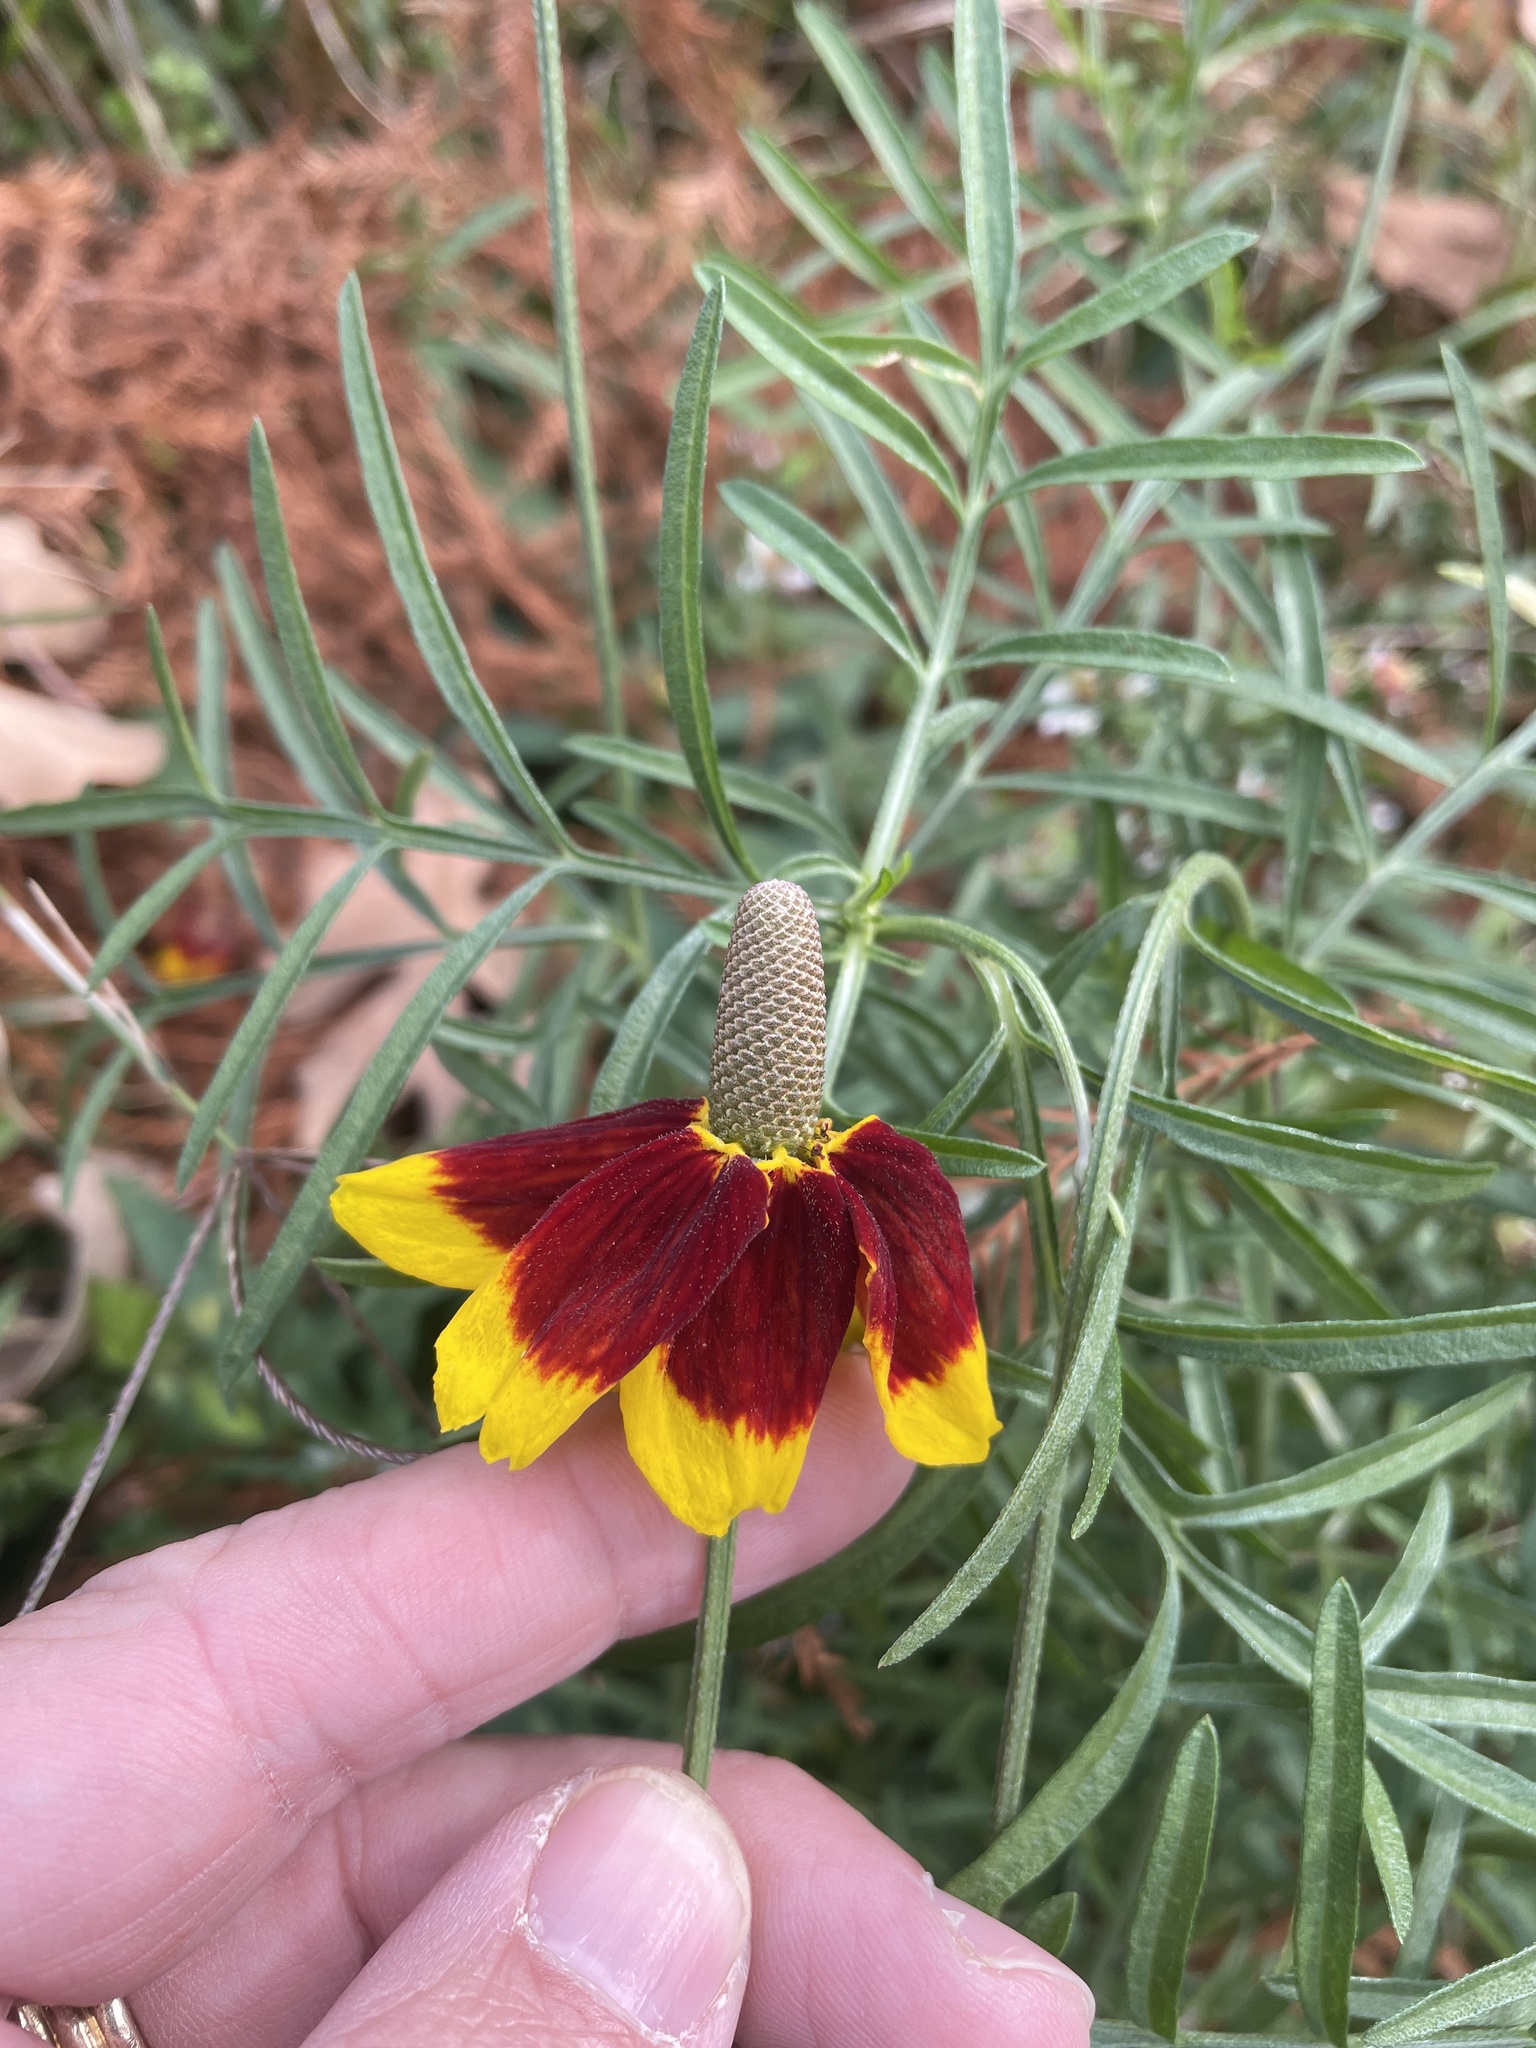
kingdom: Plantae
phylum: Tracheophyta
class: Magnoliopsida
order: Asterales
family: Asteraceae
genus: Ratibida
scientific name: Ratibida columnifera
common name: Prairie coneflower
